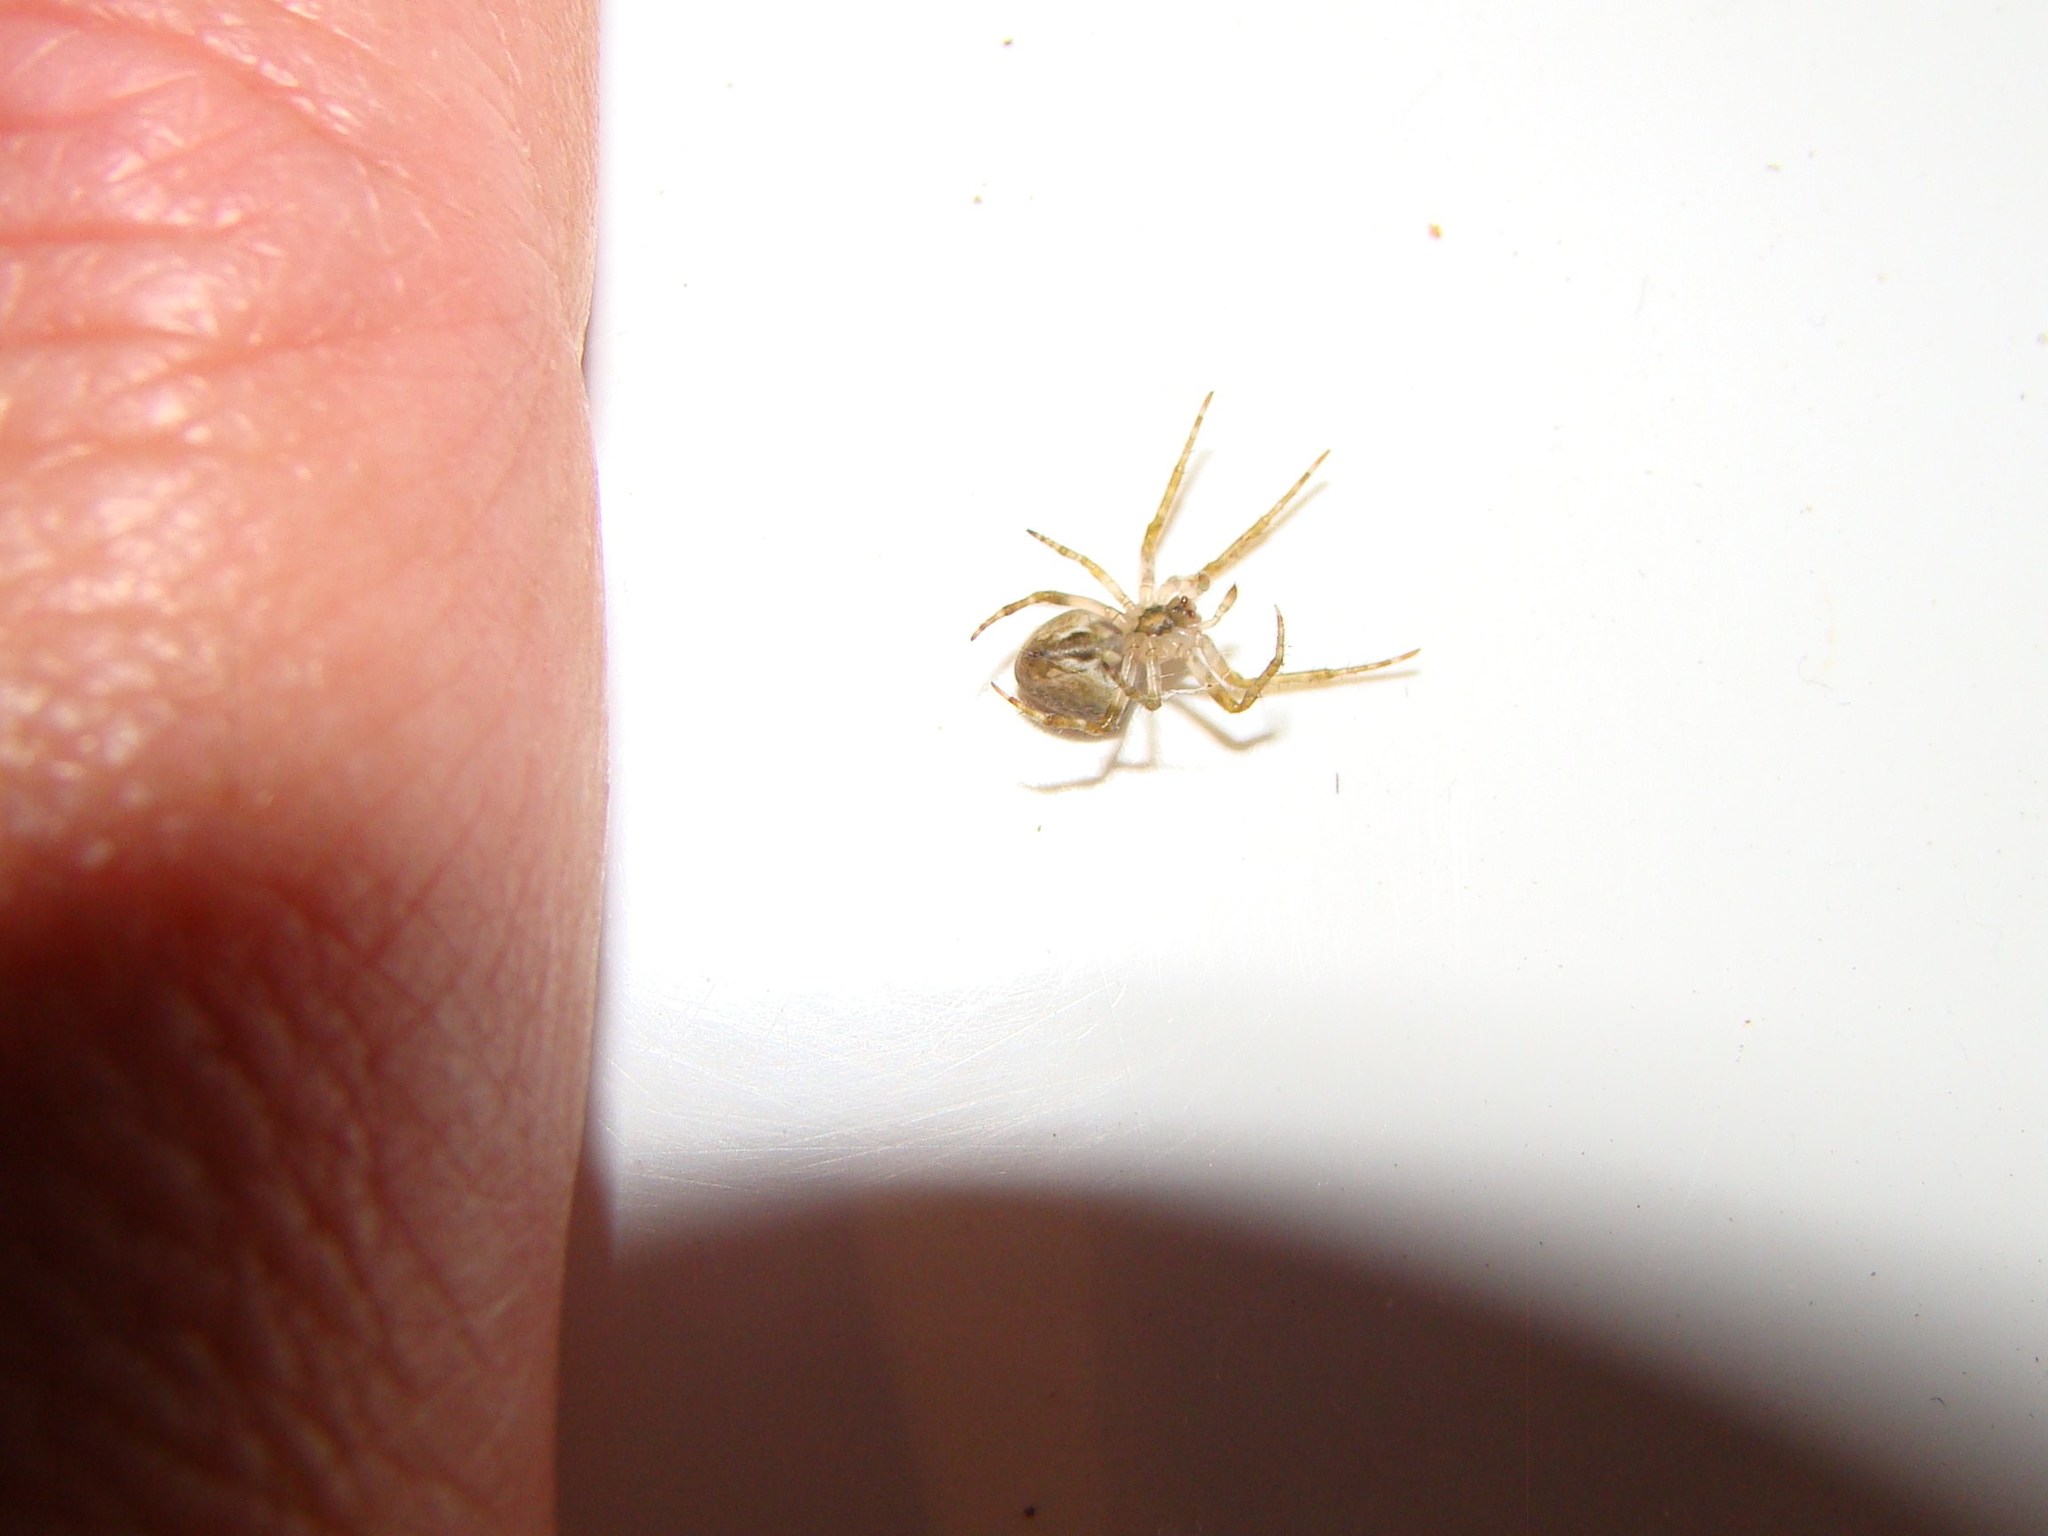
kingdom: Animalia
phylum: Arthropoda
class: Arachnida
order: Araneae
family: Araneidae
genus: Zealaranea
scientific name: Zealaranea crassa
